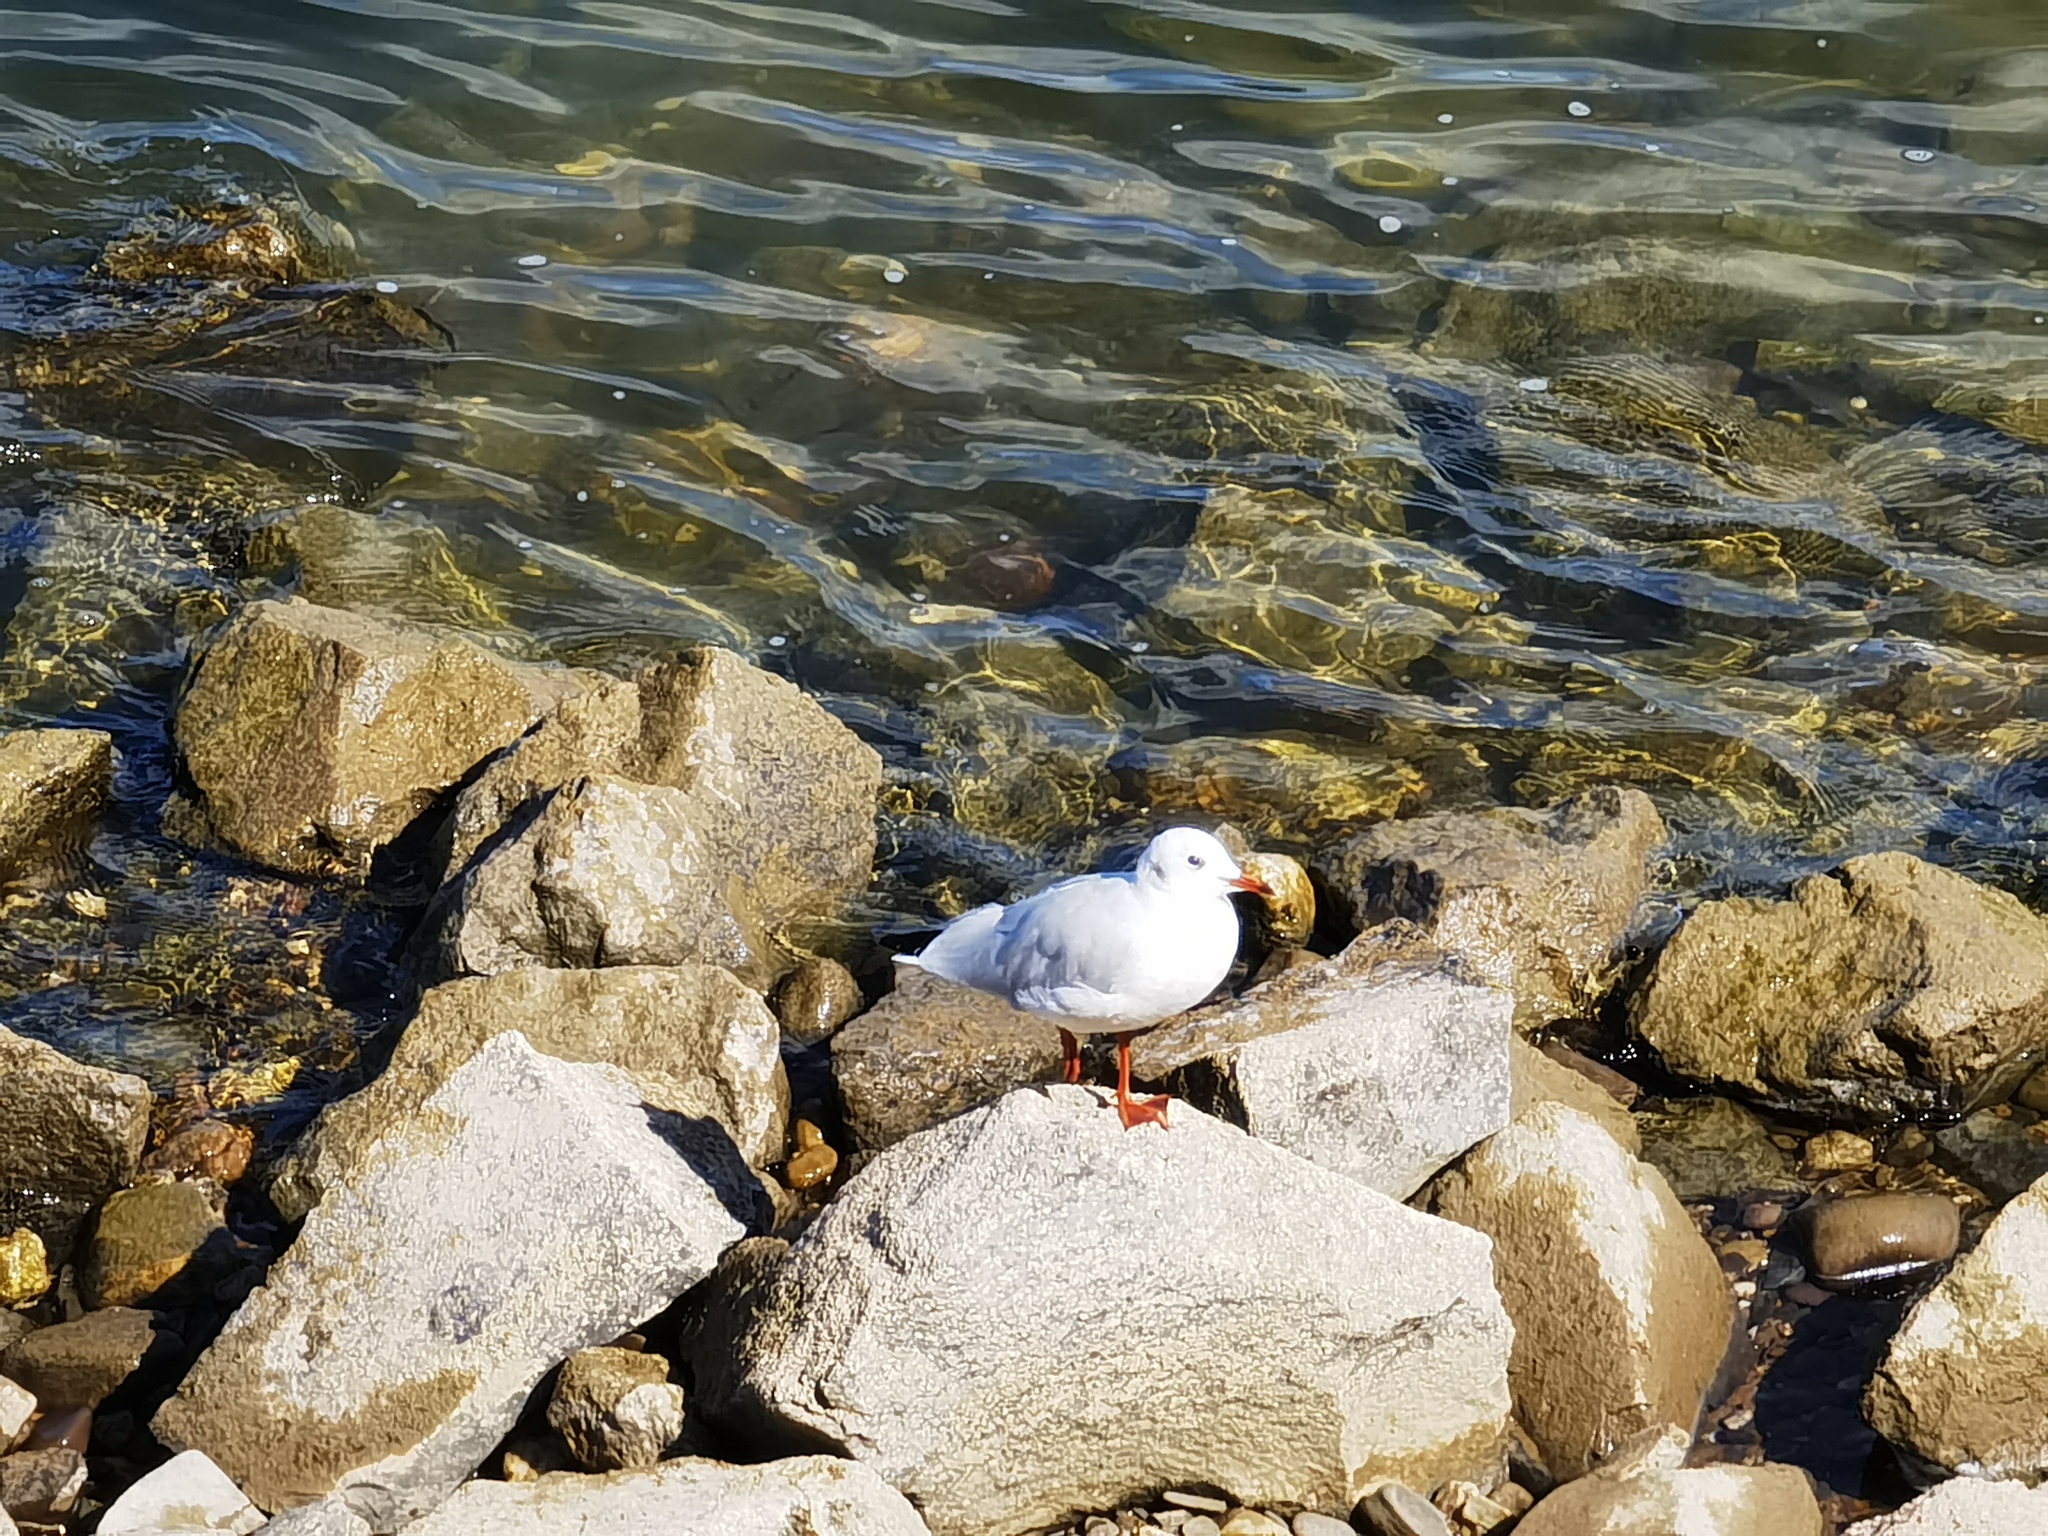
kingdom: Animalia
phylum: Chordata
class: Aves
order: Charadriiformes
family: Laridae
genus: Chroicocephalus
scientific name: Chroicocephalus ridibundus
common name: Black-headed gull
